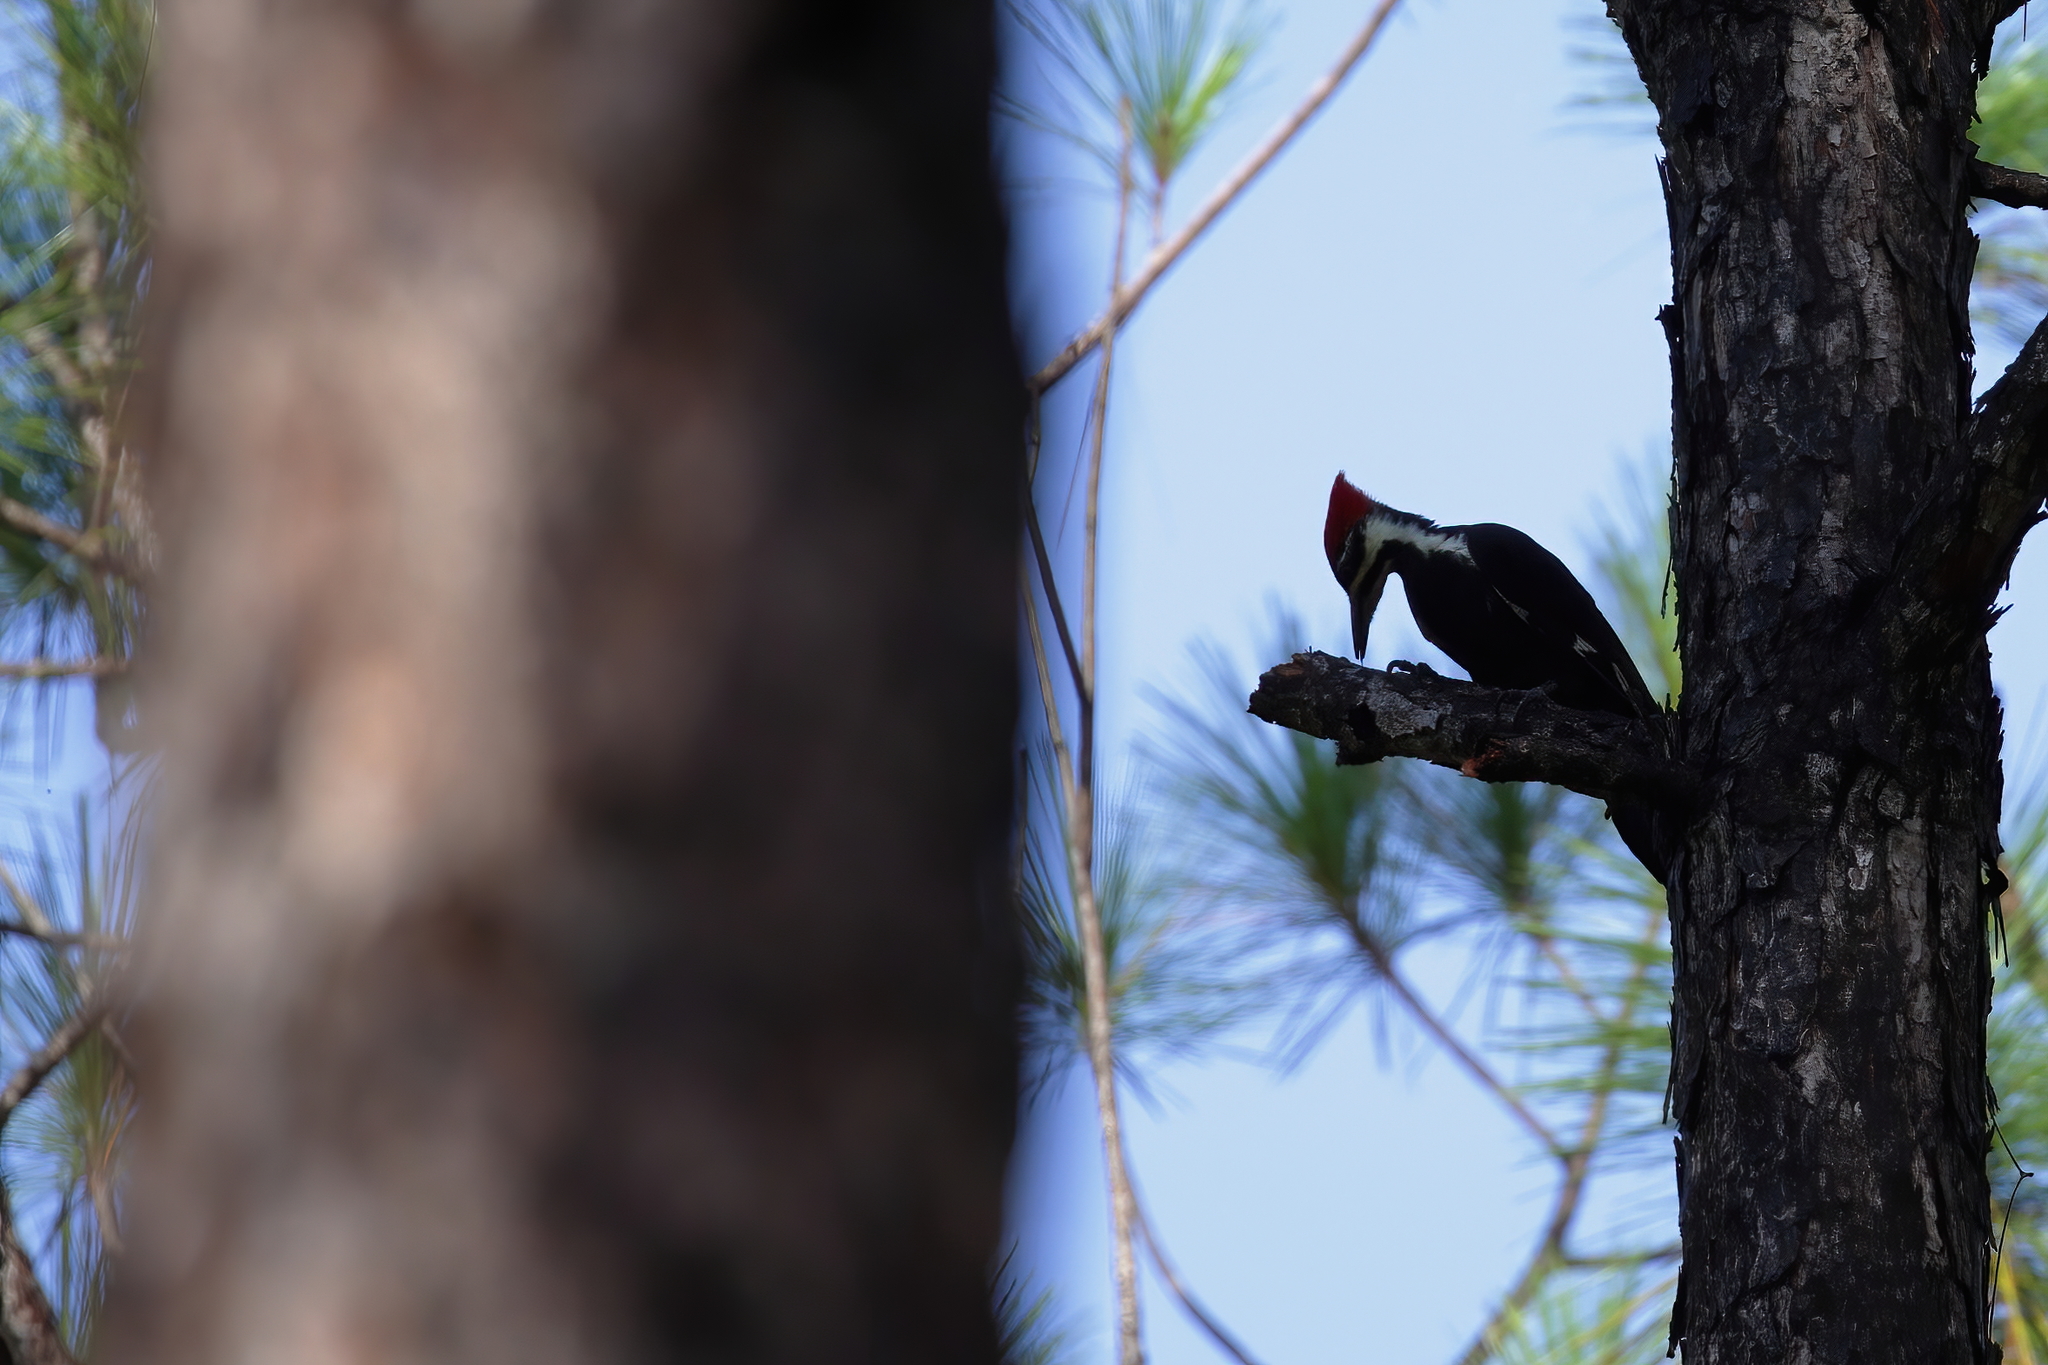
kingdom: Animalia
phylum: Chordata
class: Aves
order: Piciformes
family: Picidae
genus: Dryocopus
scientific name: Dryocopus pileatus
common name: Pileated woodpecker
